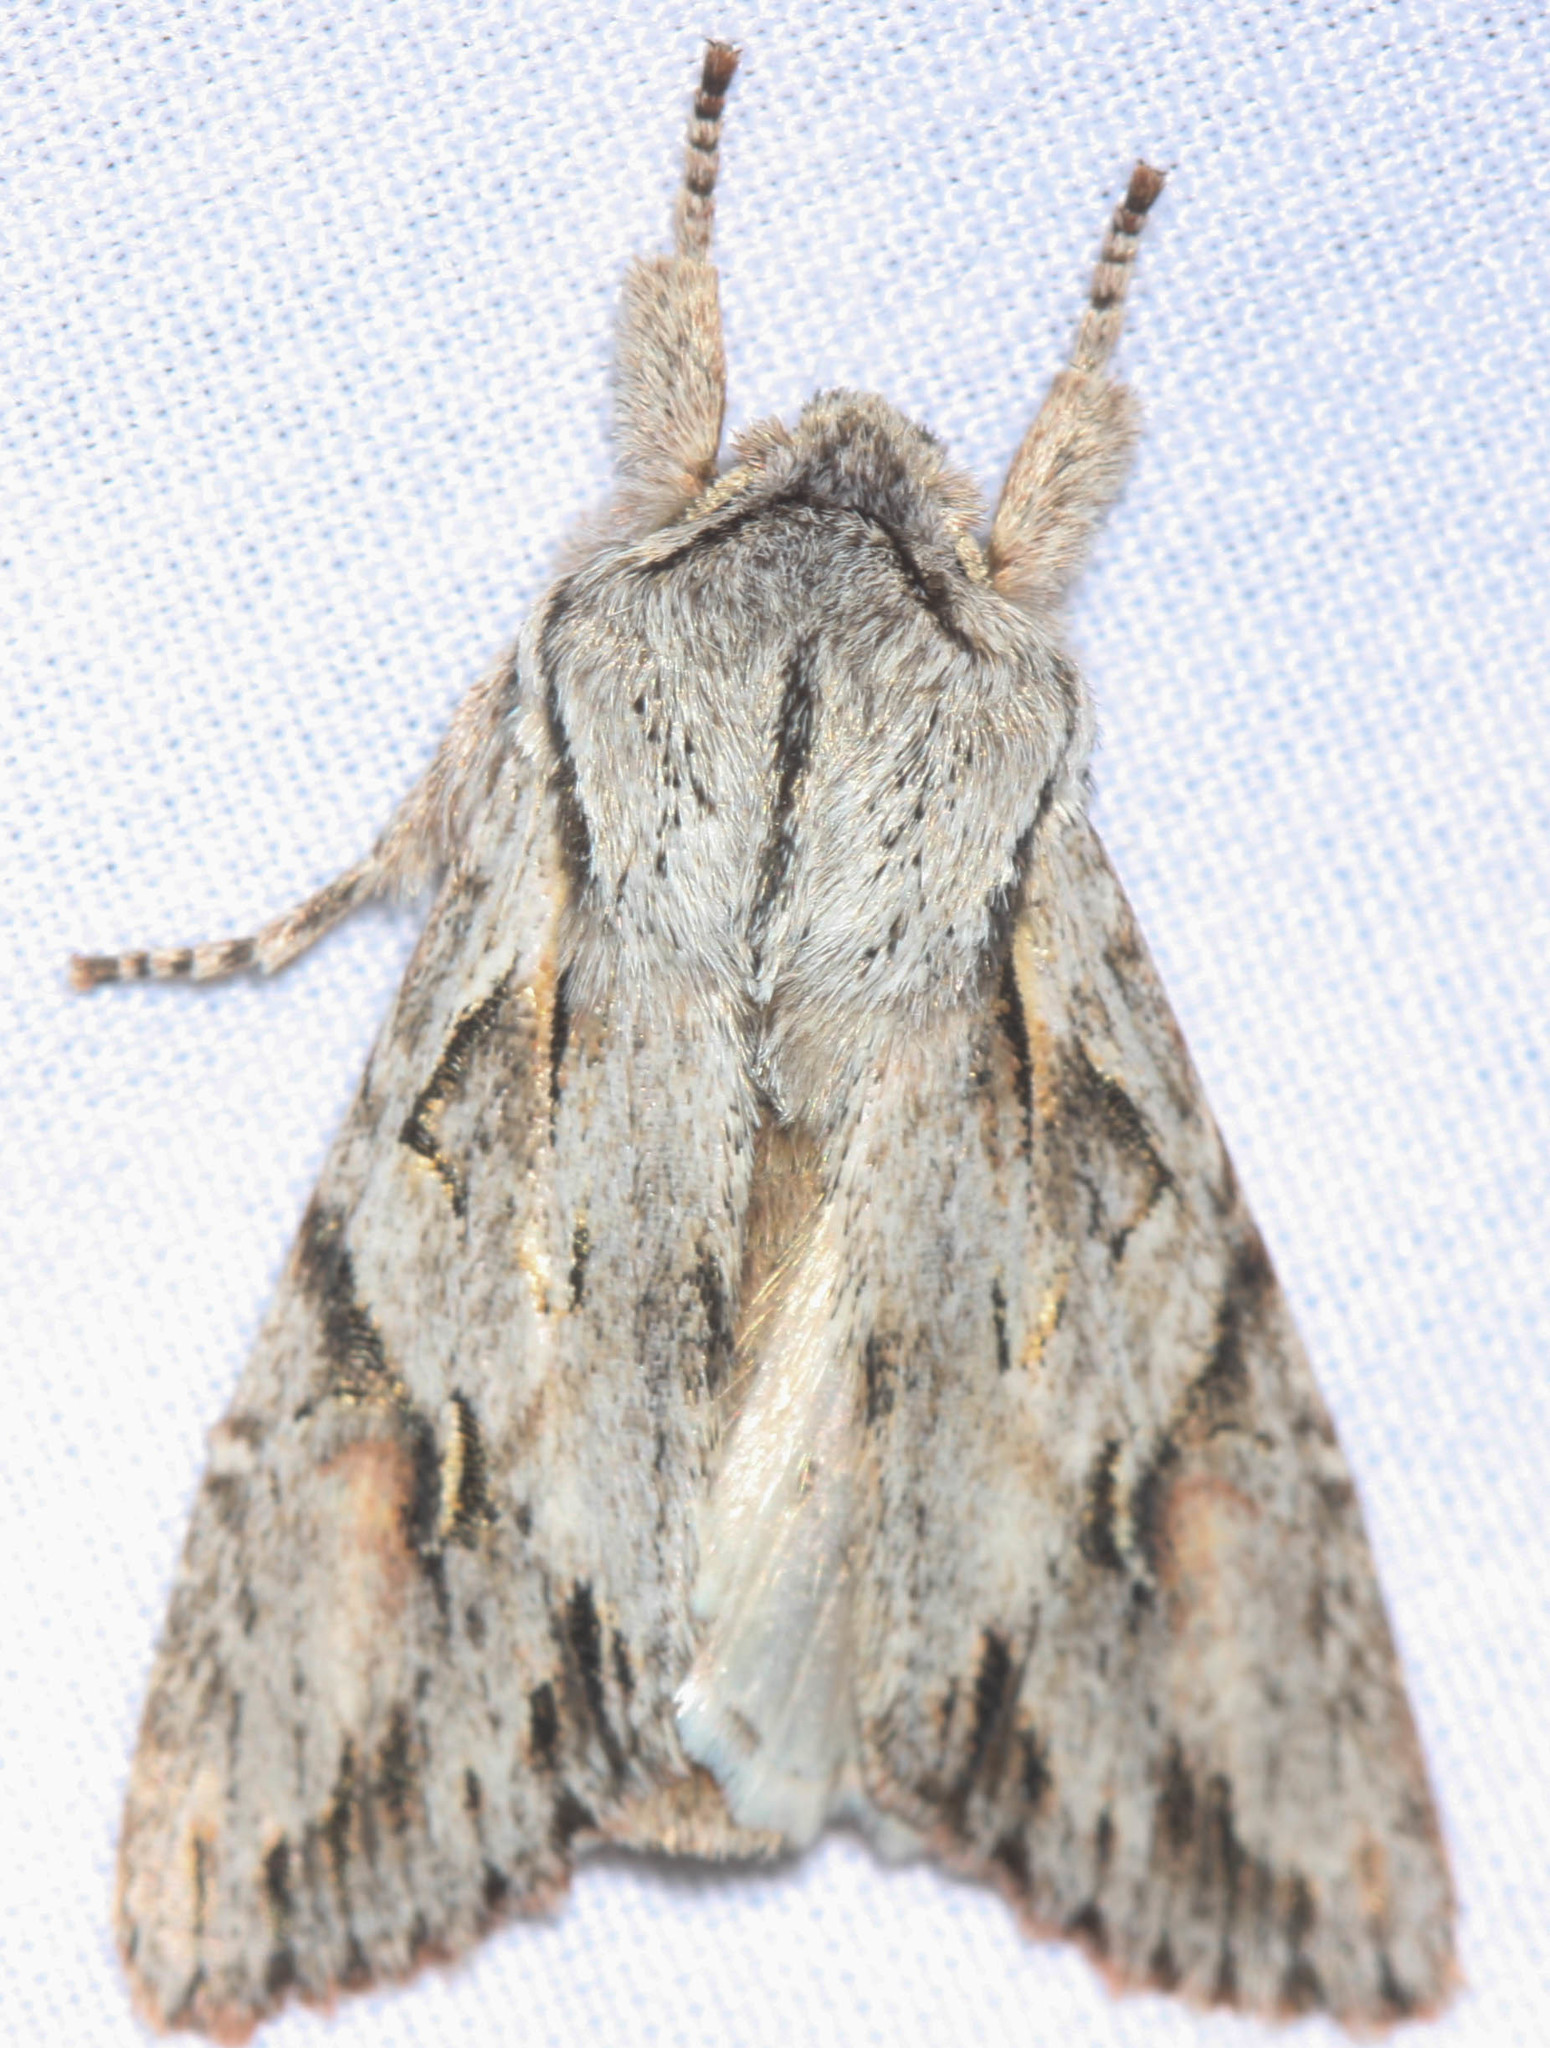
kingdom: Animalia
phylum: Arthropoda
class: Insecta
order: Lepidoptera
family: Noctuidae
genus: Egira
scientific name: Egira crucialis
